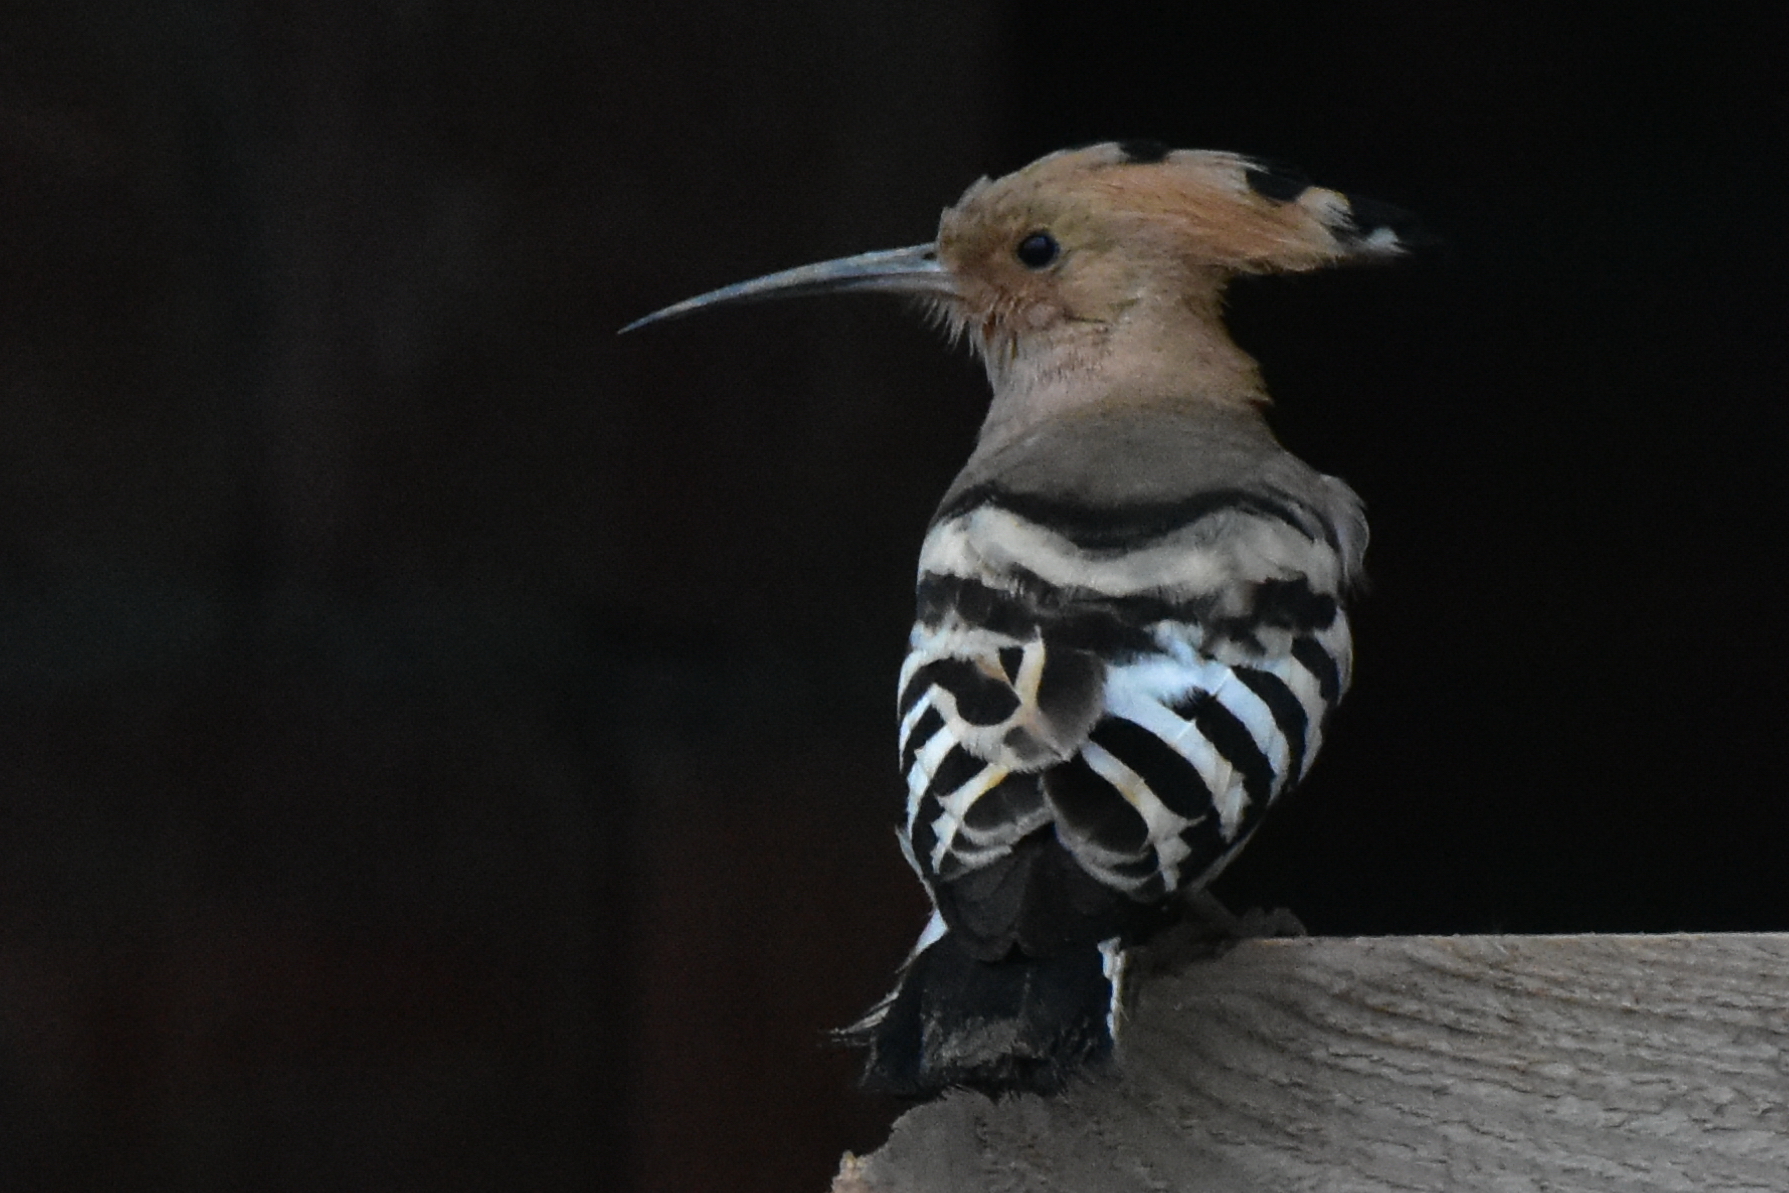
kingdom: Animalia
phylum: Chordata
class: Aves
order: Bucerotiformes
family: Upupidae
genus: Upupa
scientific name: Upupa epops
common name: Eurasian hoopoe
